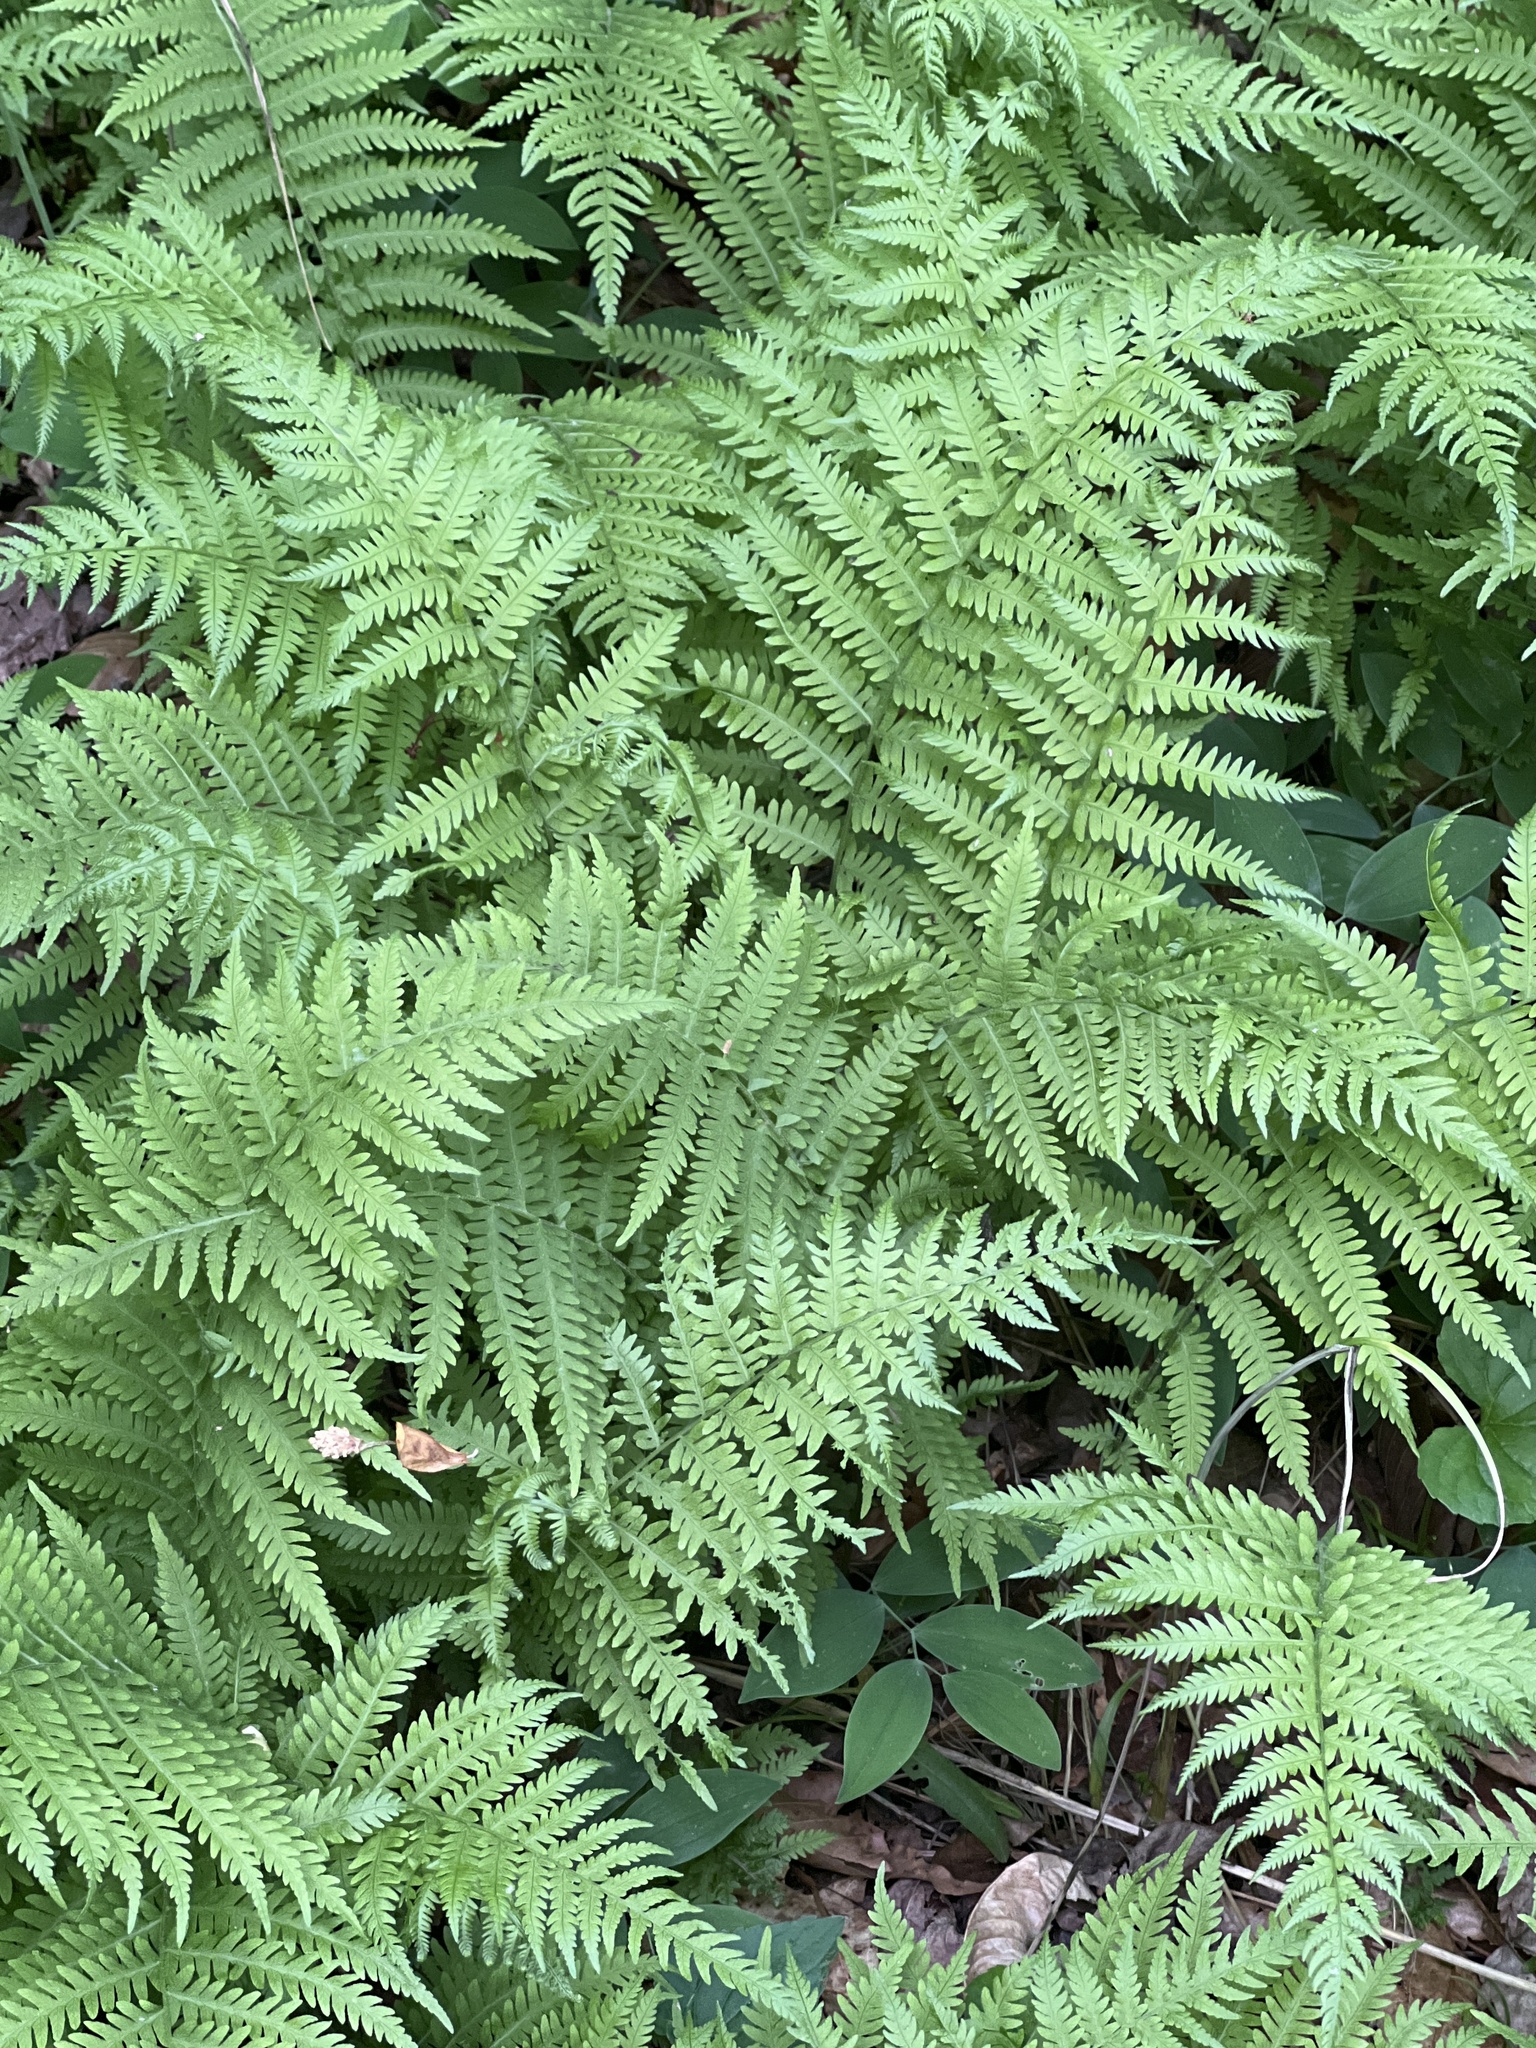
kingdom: Plantae
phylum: Tracheophyta
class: Polypodiopsida
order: Polypodiales
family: Thelypteridaceae
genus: Amauropelta
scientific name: Amauropelta noveboracensis
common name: New york fern
